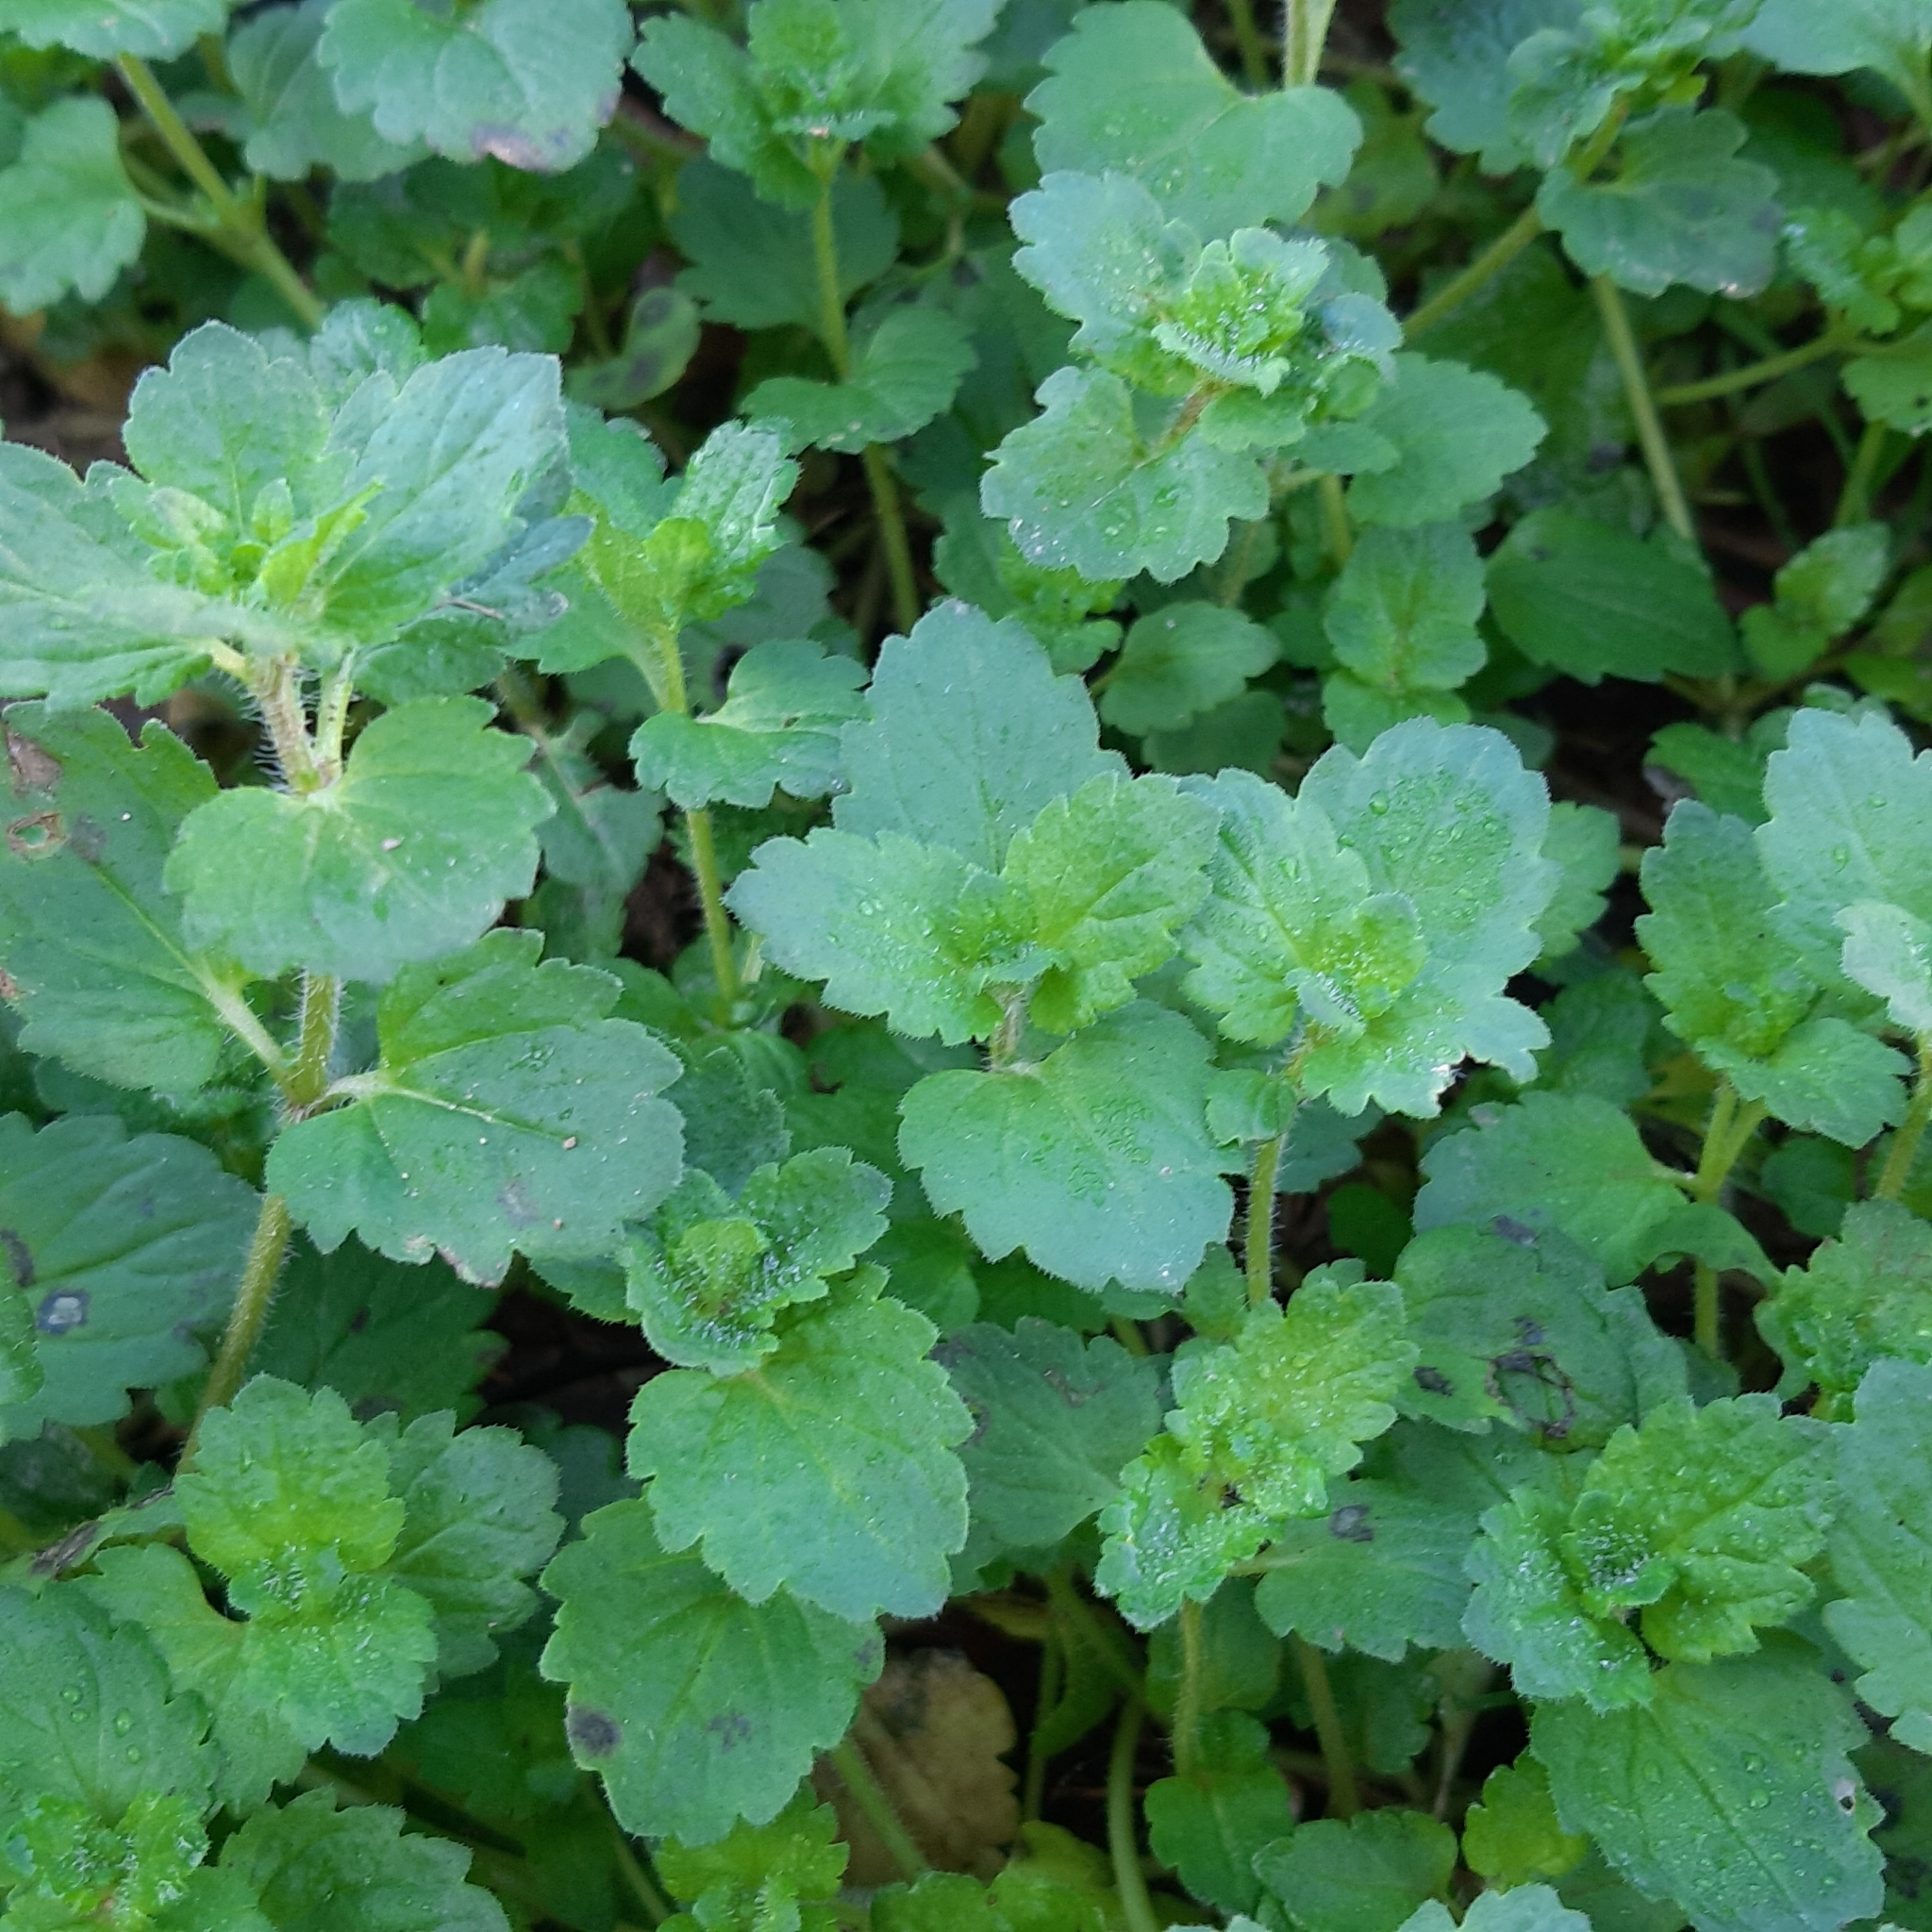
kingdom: Plantae
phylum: Tracheophyta
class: Magnoliopsida
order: Lamiales
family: Plantaginaceae
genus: Veronica
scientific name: Veronica persica
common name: Common field-speedwell
